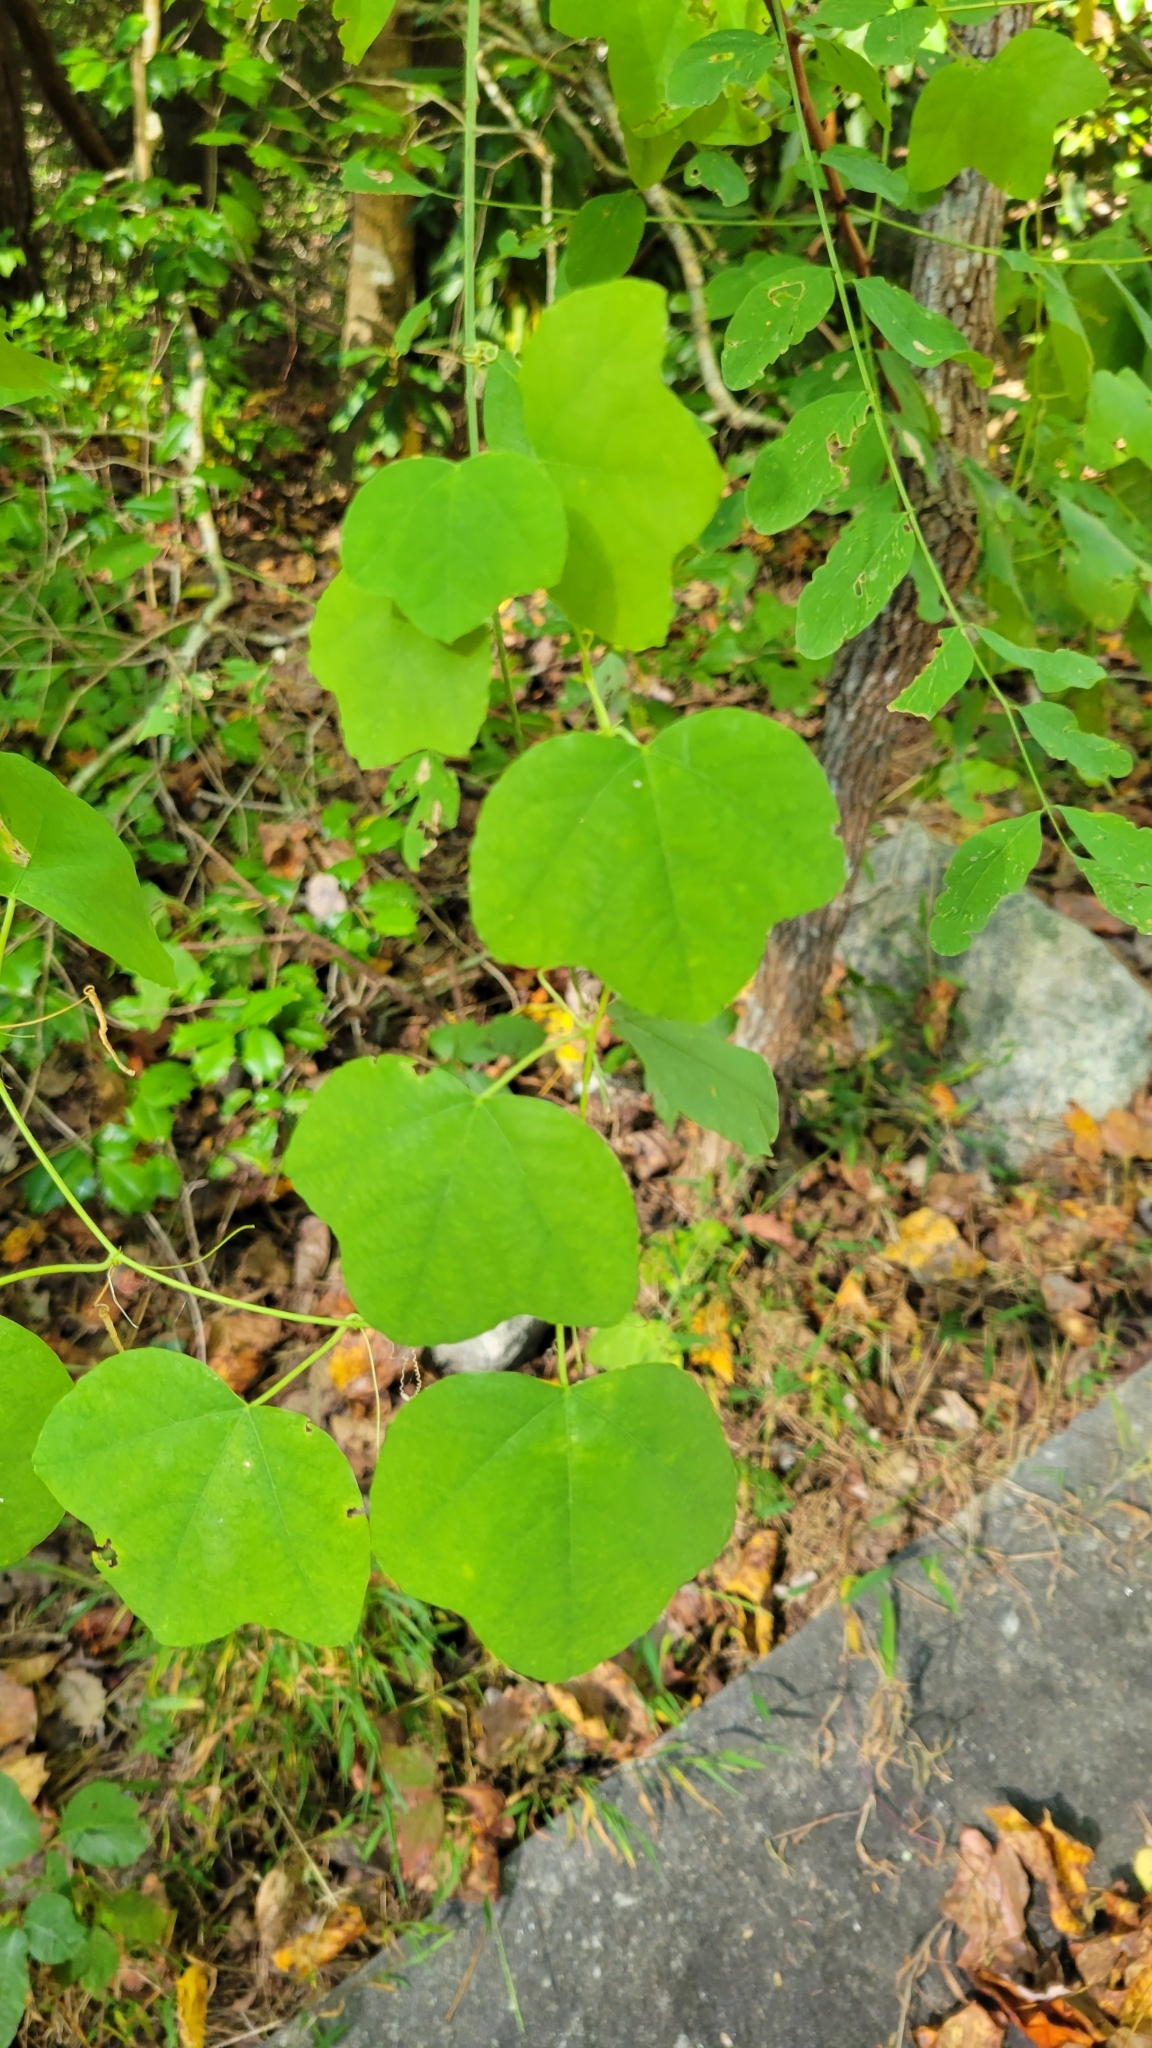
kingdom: Plantae
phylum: Tracheophyta
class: Magnoliopsida
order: Malpighiales
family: Passifloraceae
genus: Passiflora
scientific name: Passiflora lutea
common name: Yellow passionflower
